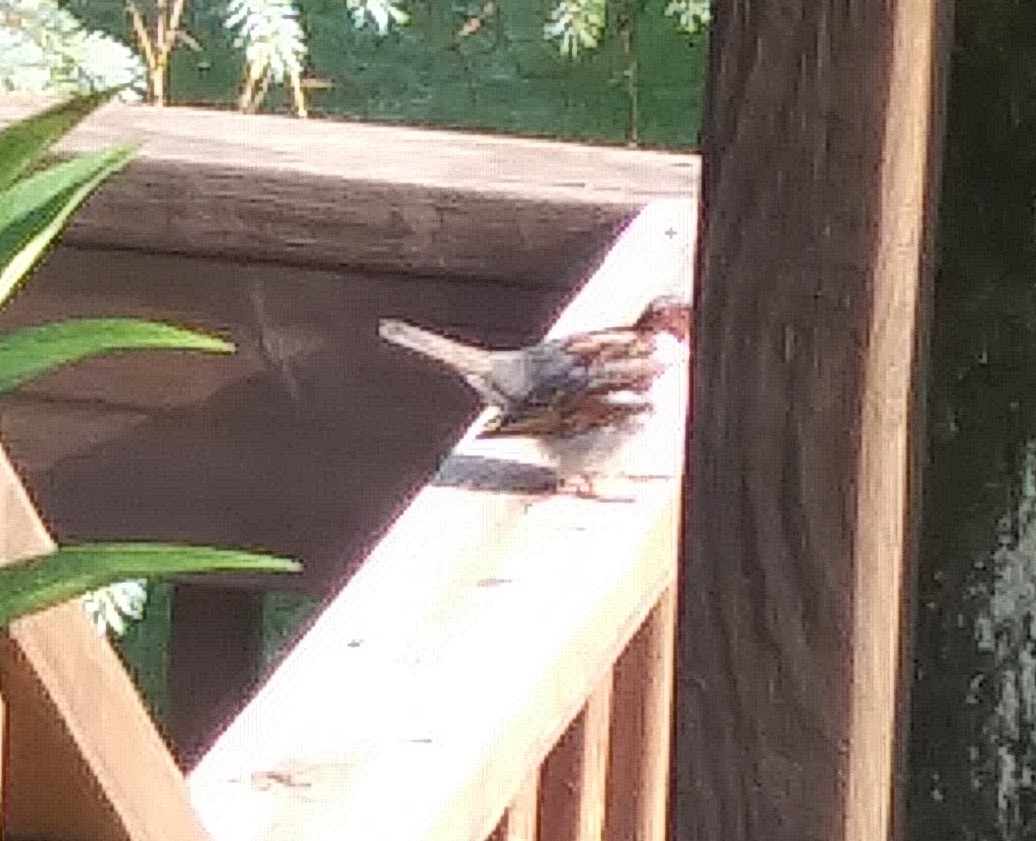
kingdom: Animalia
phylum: Chordata
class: Aves
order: Passeriformes
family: Passeridae
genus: Passer
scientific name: Passer domesticus
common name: House sparrow
